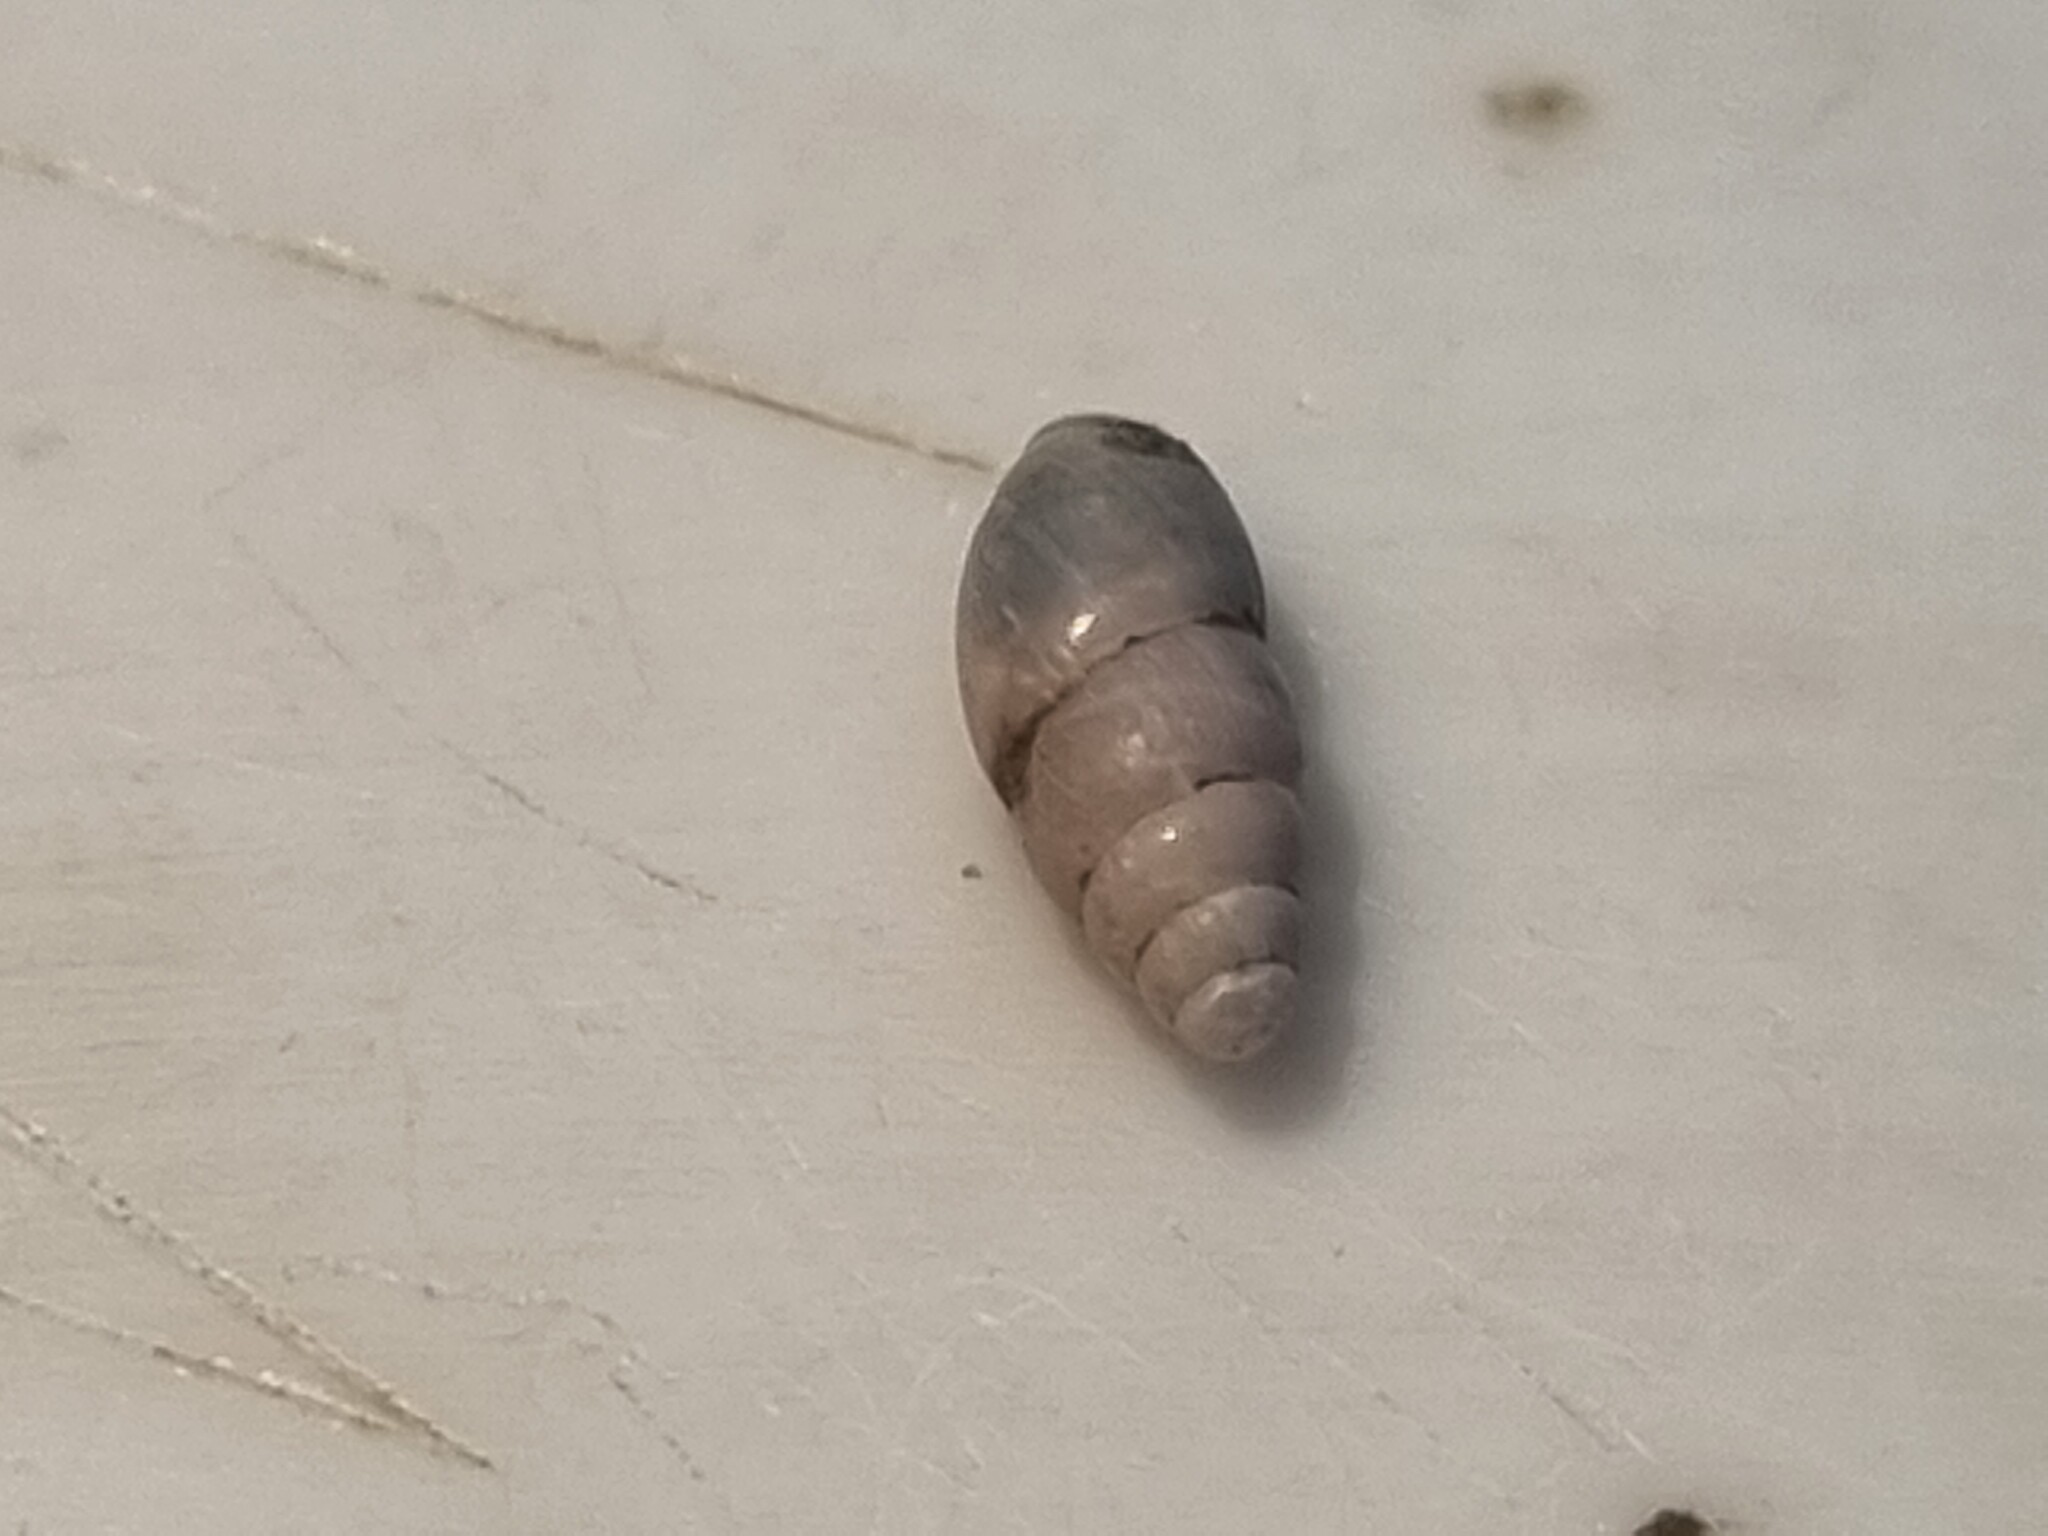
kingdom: Animalia
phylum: Mollusca
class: Gastropoda
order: Stylommatophora
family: Cochlicopidae
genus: Cochlicopa
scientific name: Cochlicopa lubrica
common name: Glossy pillar snail
